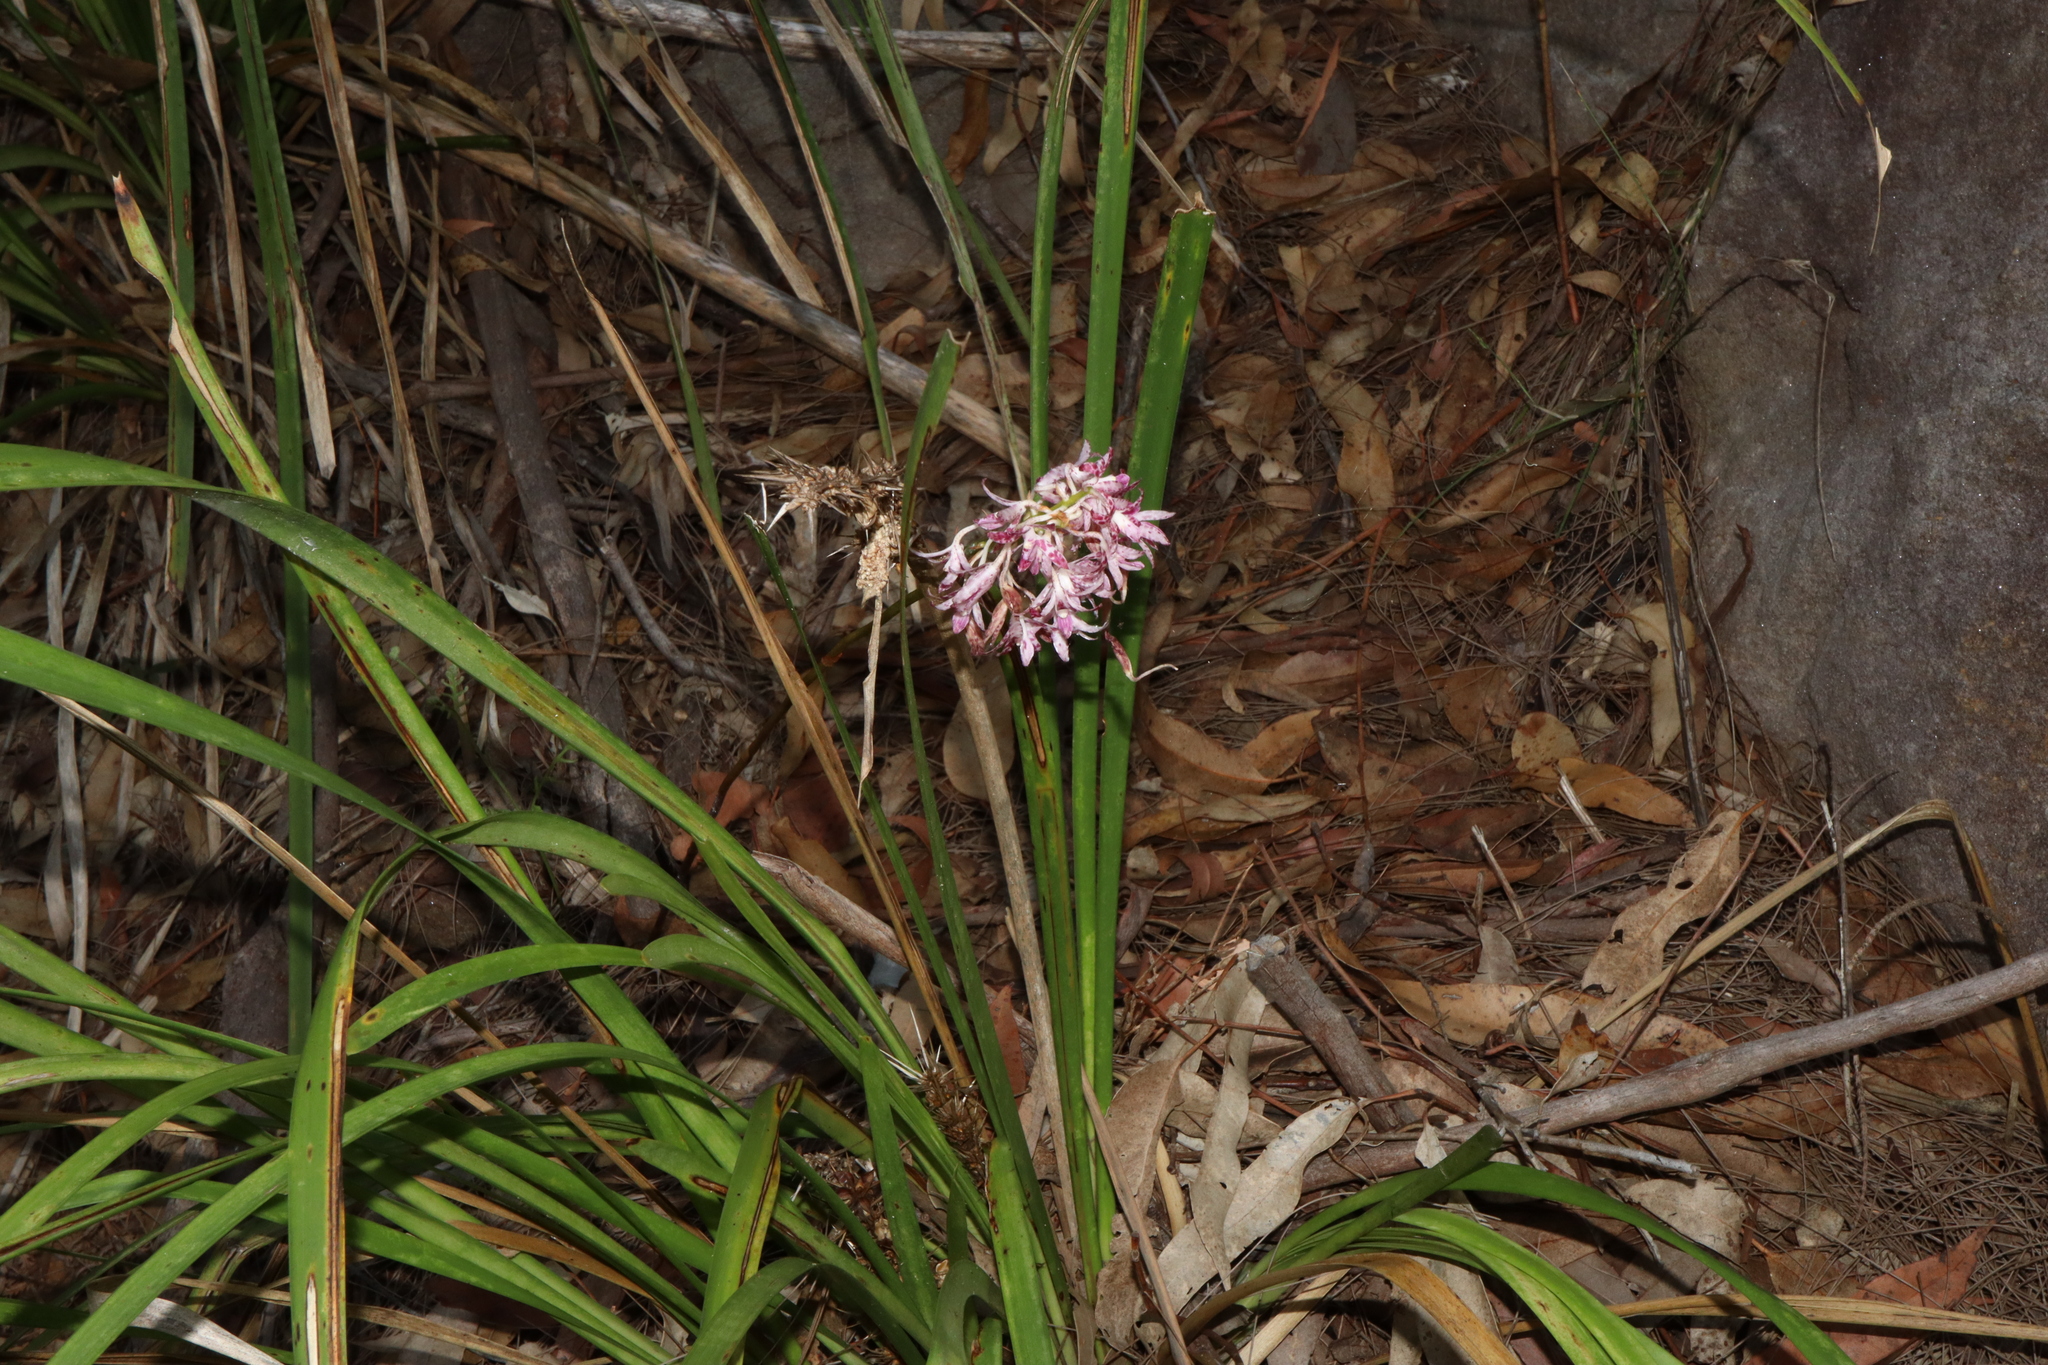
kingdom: Plantae
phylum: Tracheophyta
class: Liliopsida
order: Asparagales
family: Orchidaceae
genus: Dipodium
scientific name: Dipodium variegatum
